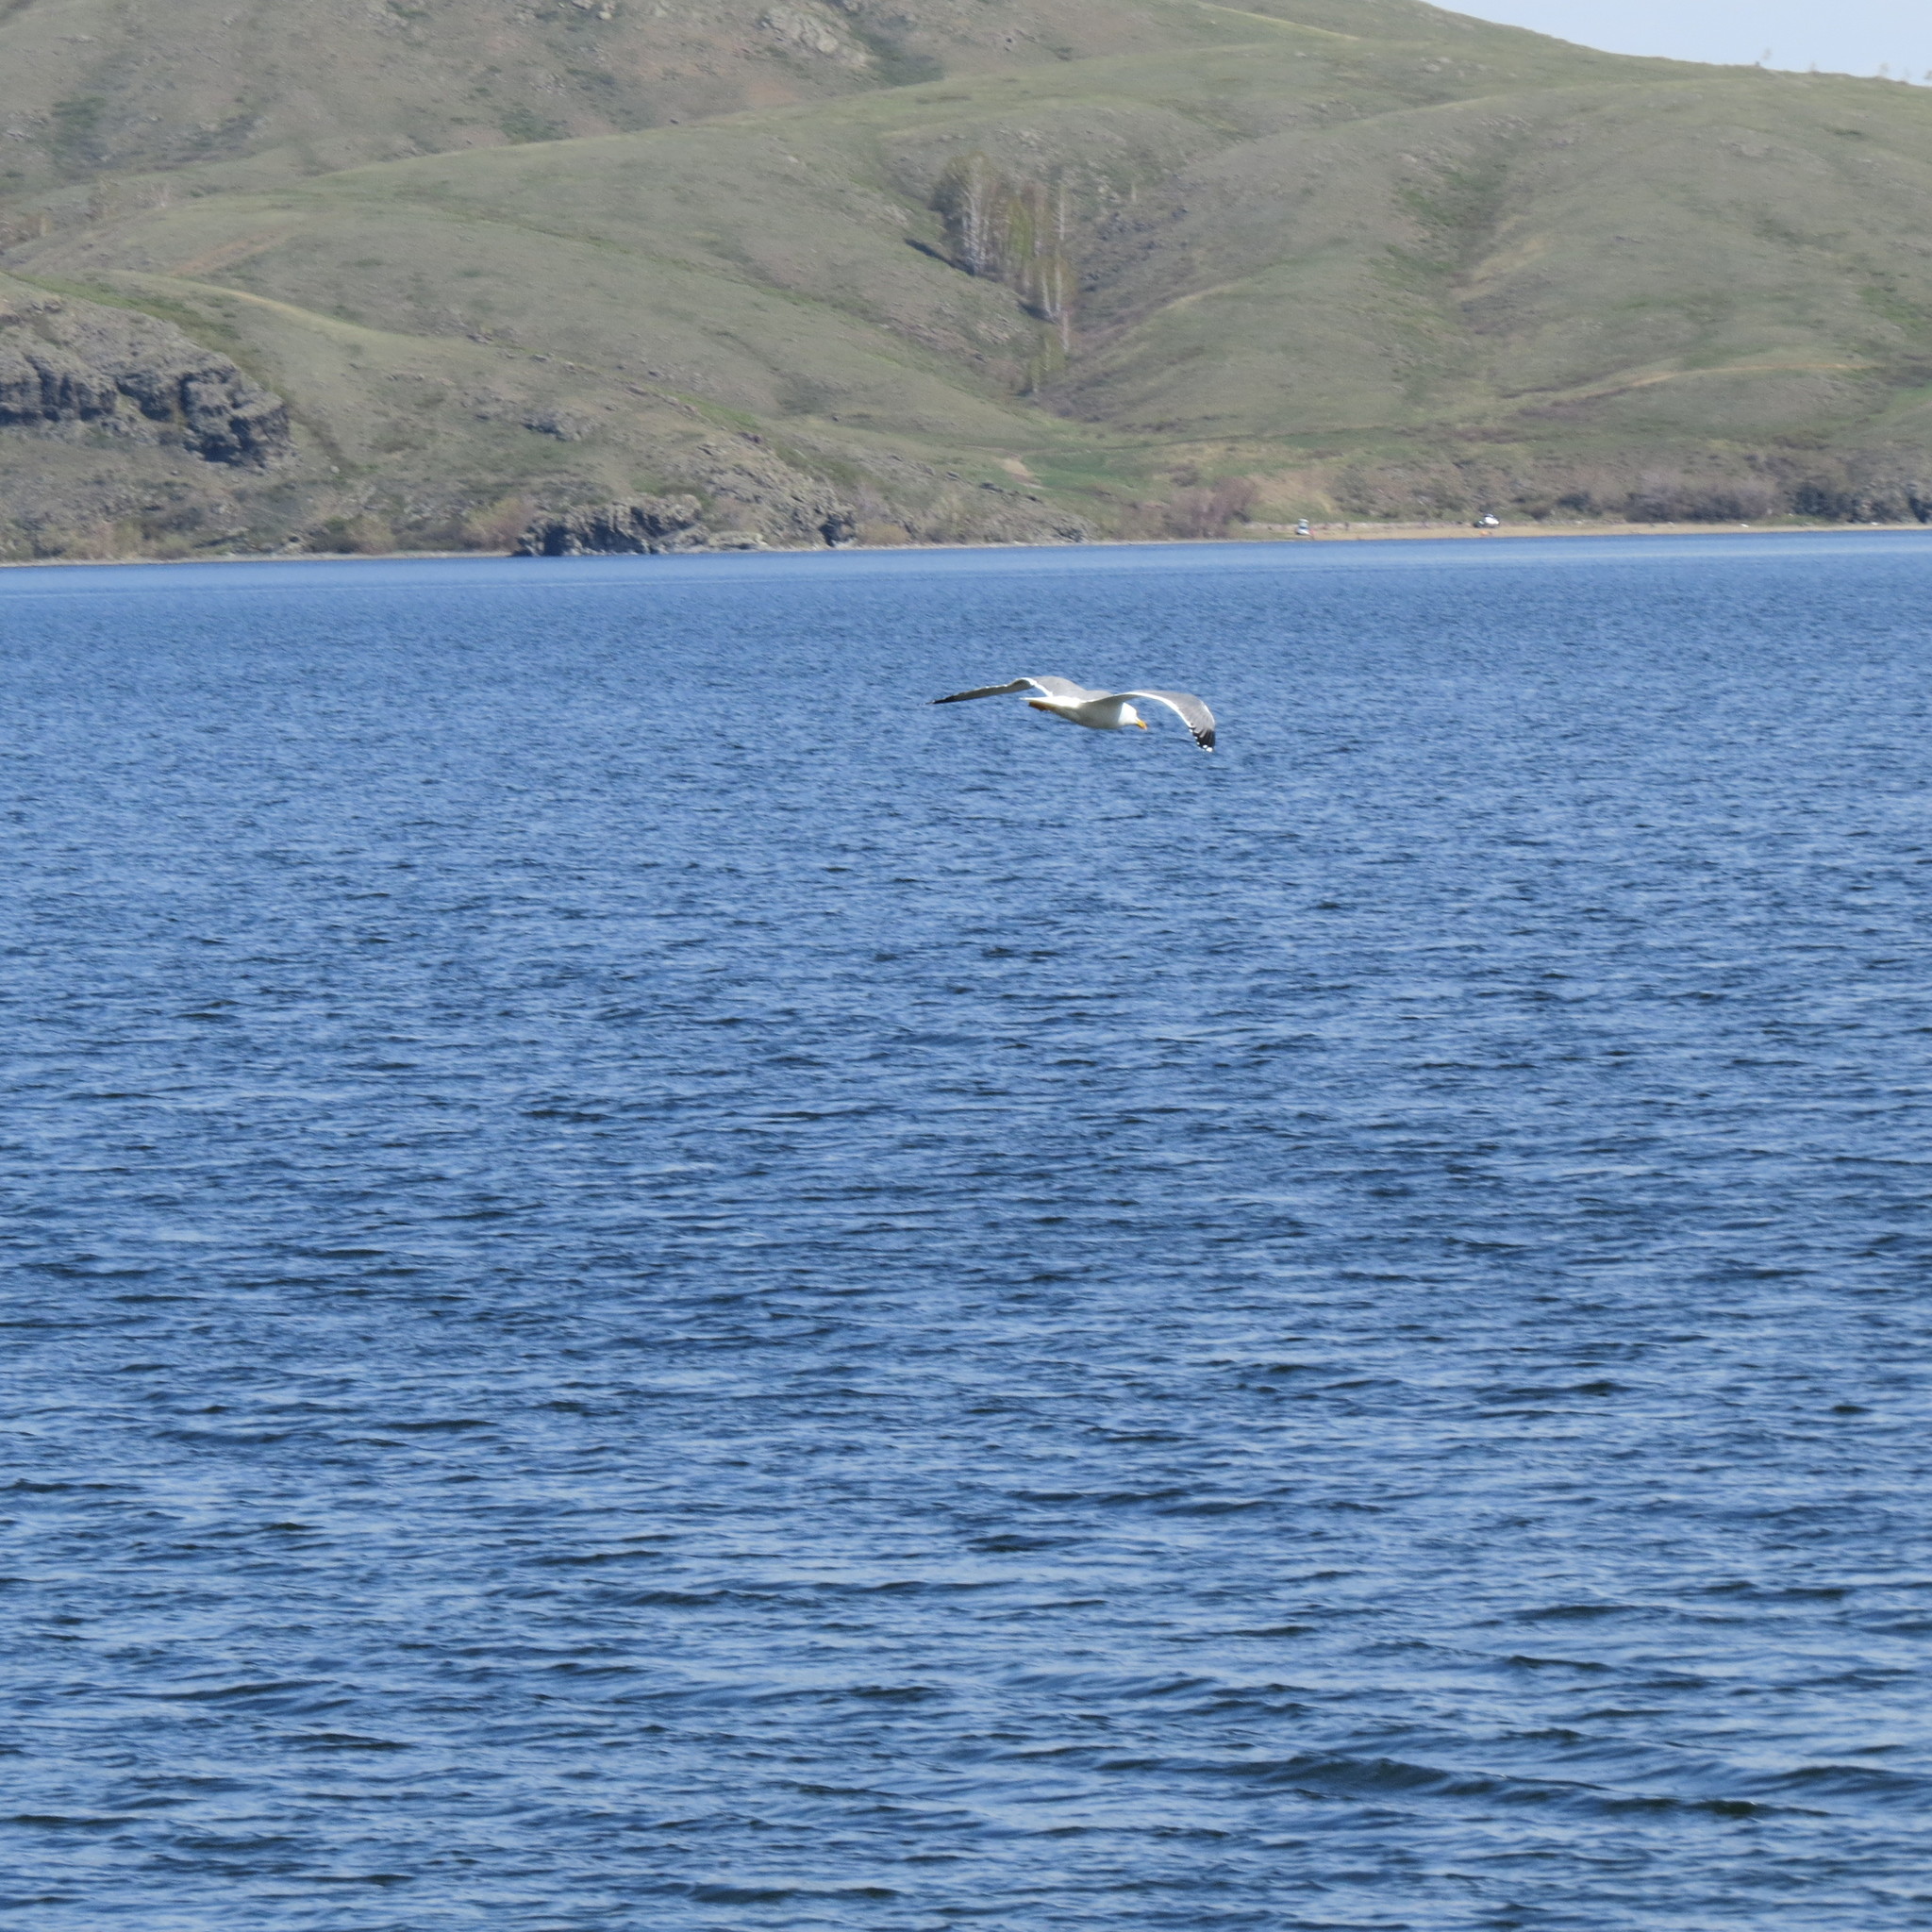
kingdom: Animalia
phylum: Chordata
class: Aves
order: Charadriiformes
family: Laridae
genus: Larus
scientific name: Larus fuscus
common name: Lesser black-backed gull
